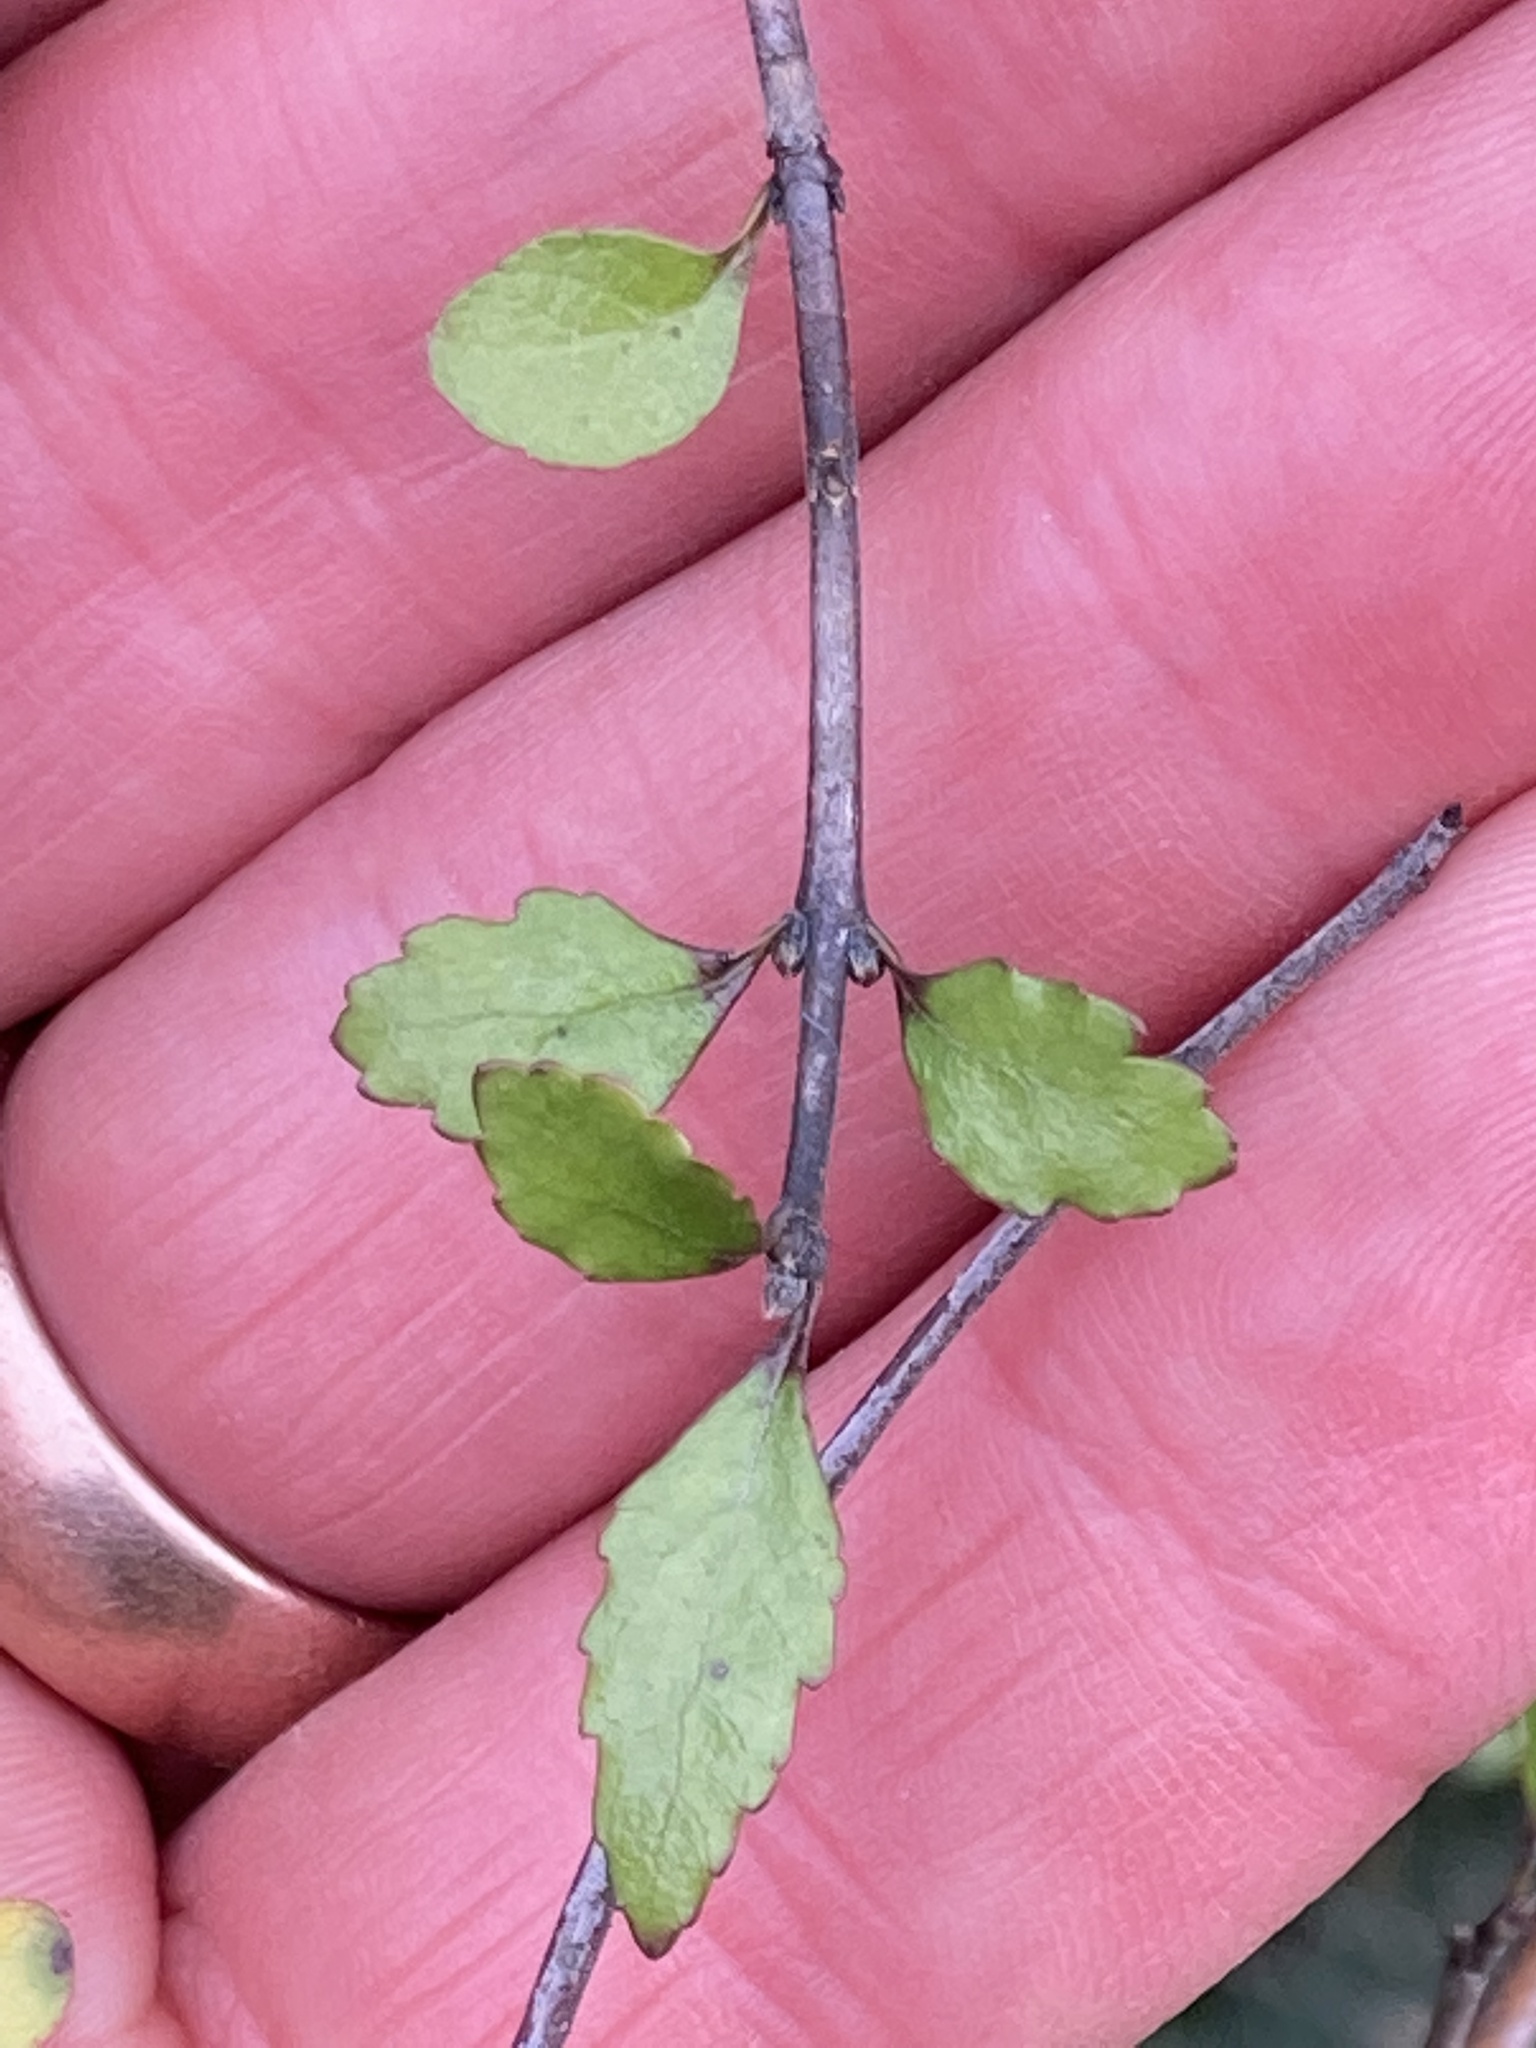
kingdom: Plantae
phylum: Tracheophyta
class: Magnoliopsida
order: Oxalidales
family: Elaeocarpaceae
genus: Aristotelia
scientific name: Aristotelia fruticosa
